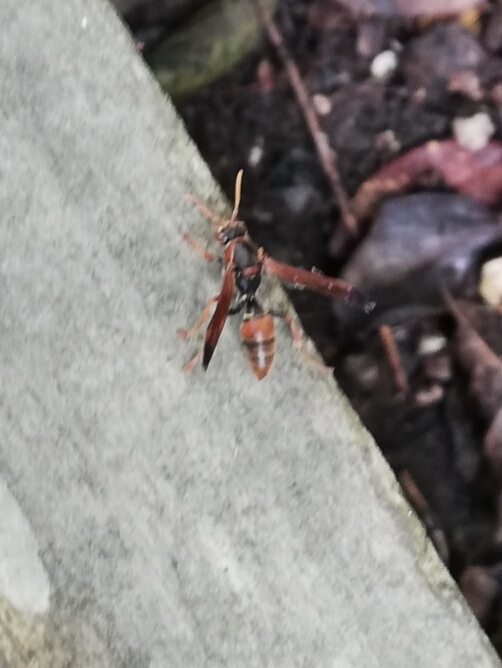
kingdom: Animalia
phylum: Arthropoda
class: Insecta
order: Hymenoptera
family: Eumenidae
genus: Polistes
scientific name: Polistes humilis
